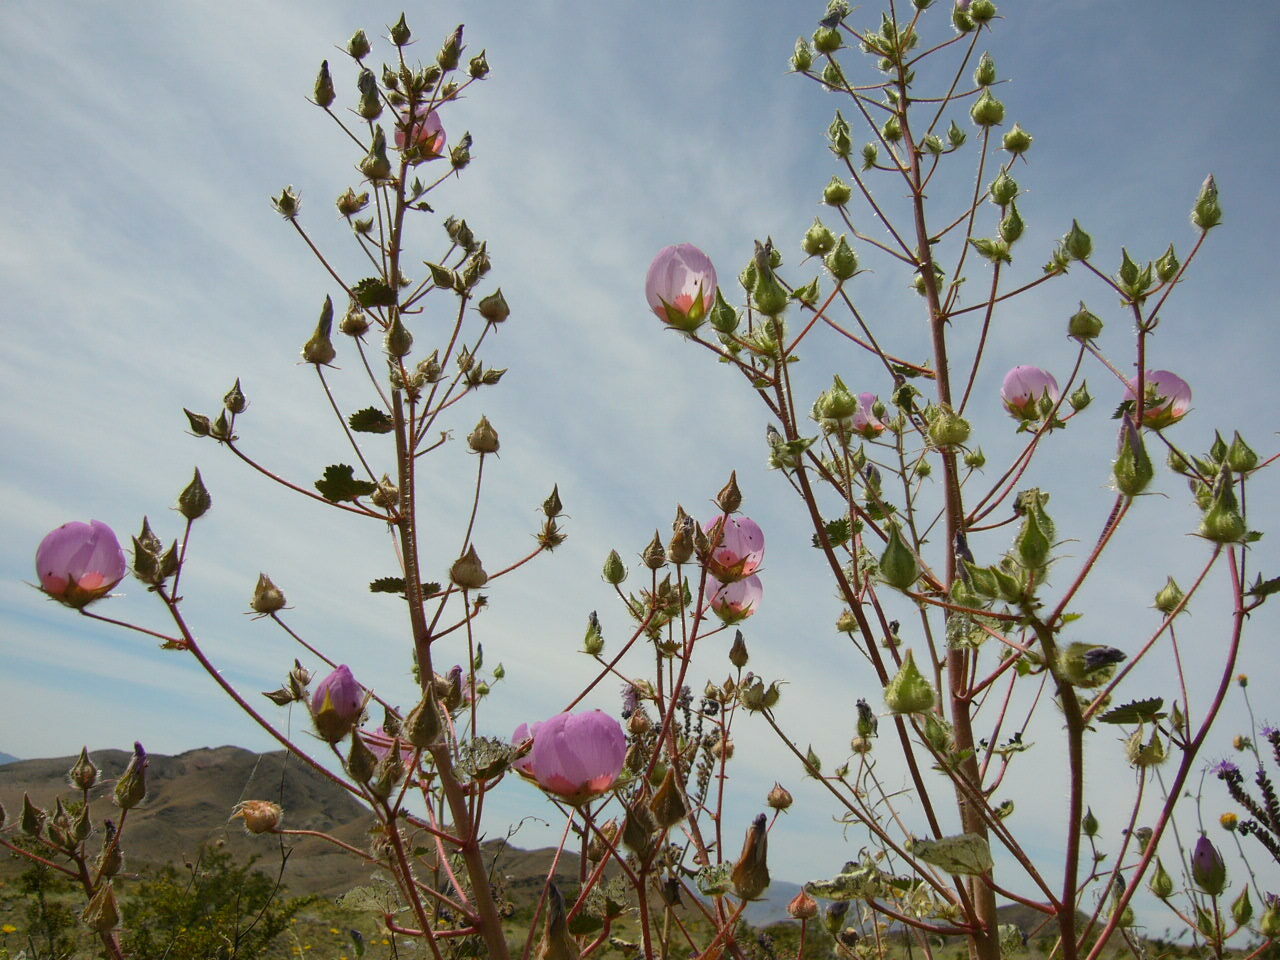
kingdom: Plantae
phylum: Tracheophyta
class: Magnoliopsida
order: Malvales
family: Malvaceae
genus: Eremalche
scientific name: Eremalche rotundifolia
